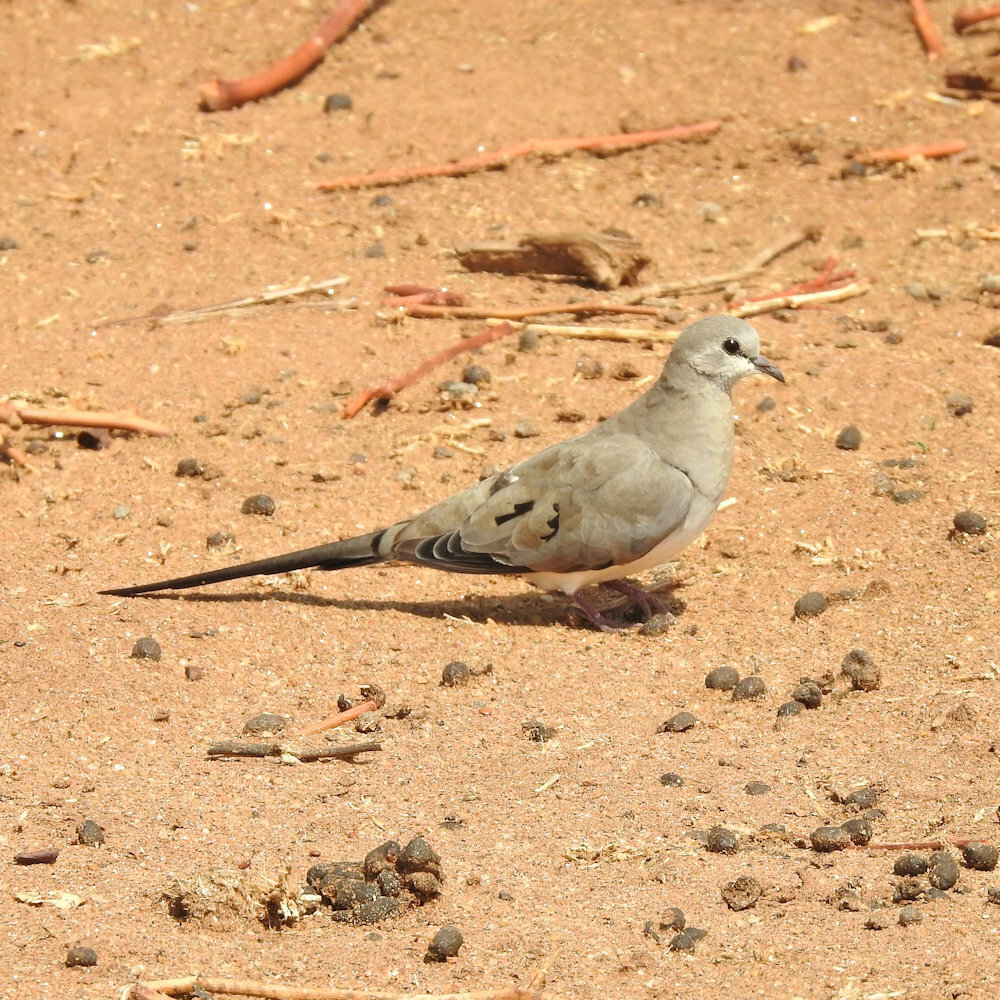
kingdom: Animalia
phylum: Chordata
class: Aves
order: Columbiformes
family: Columbidae
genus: Oena
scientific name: Oena capensis
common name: Namaqua dove
